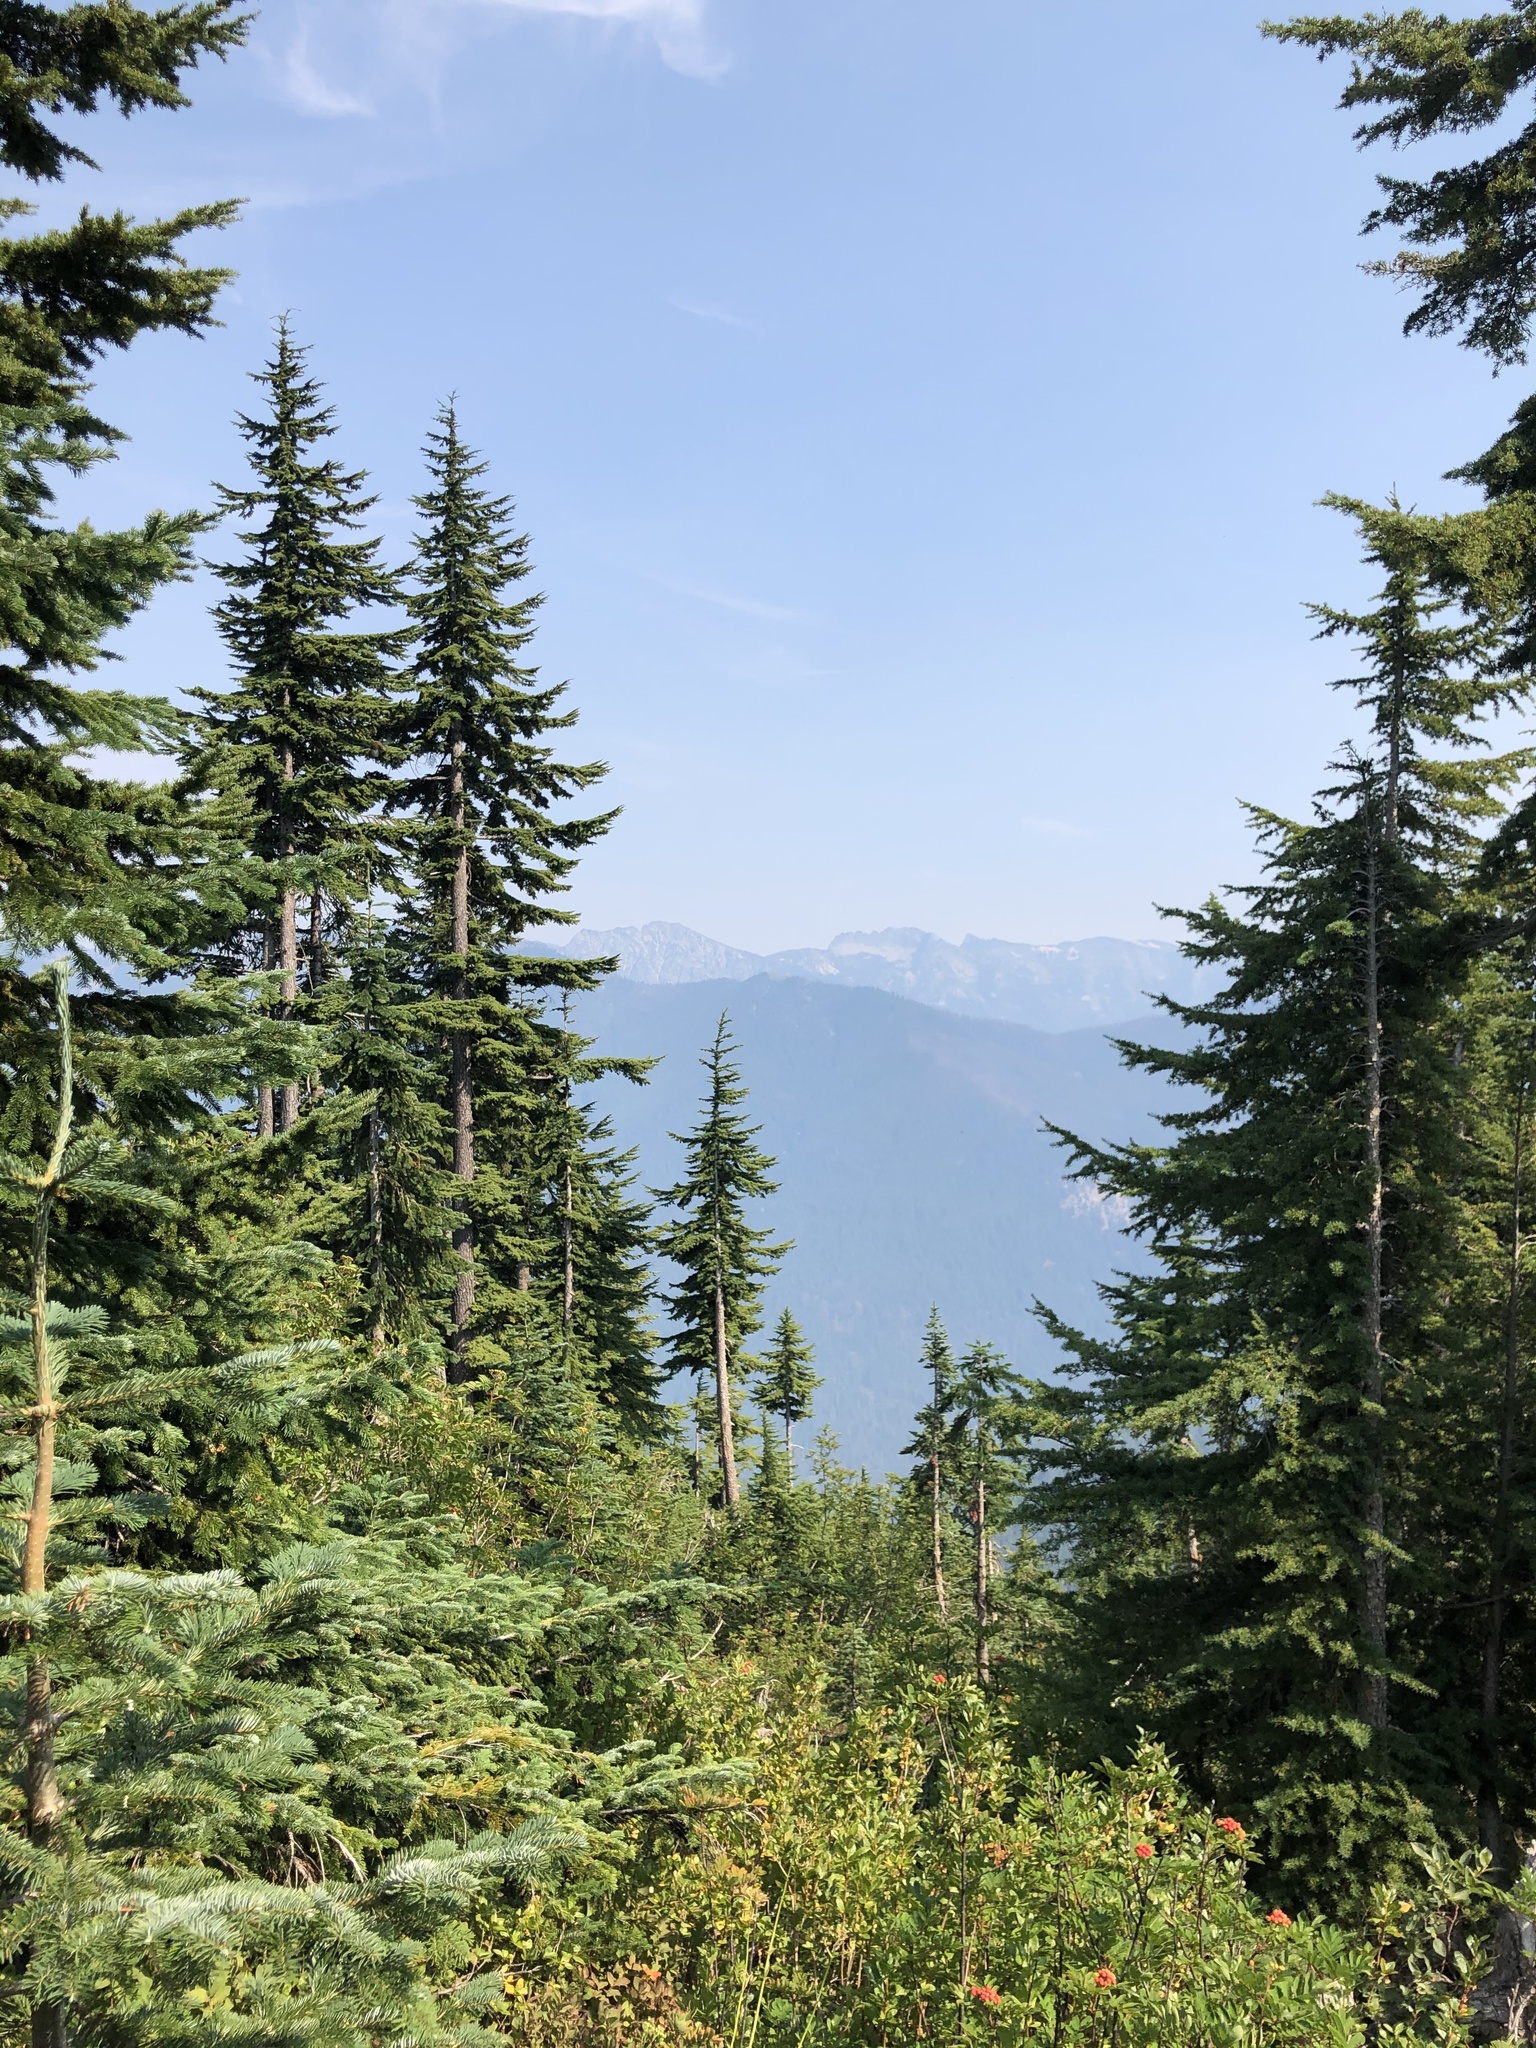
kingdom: Plantae
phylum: Tracheophyta
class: Pinopsida
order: Pinales
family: Pinaceae
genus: Tsuga
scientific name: Tsuga mertensiana
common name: Mountain hemlock
